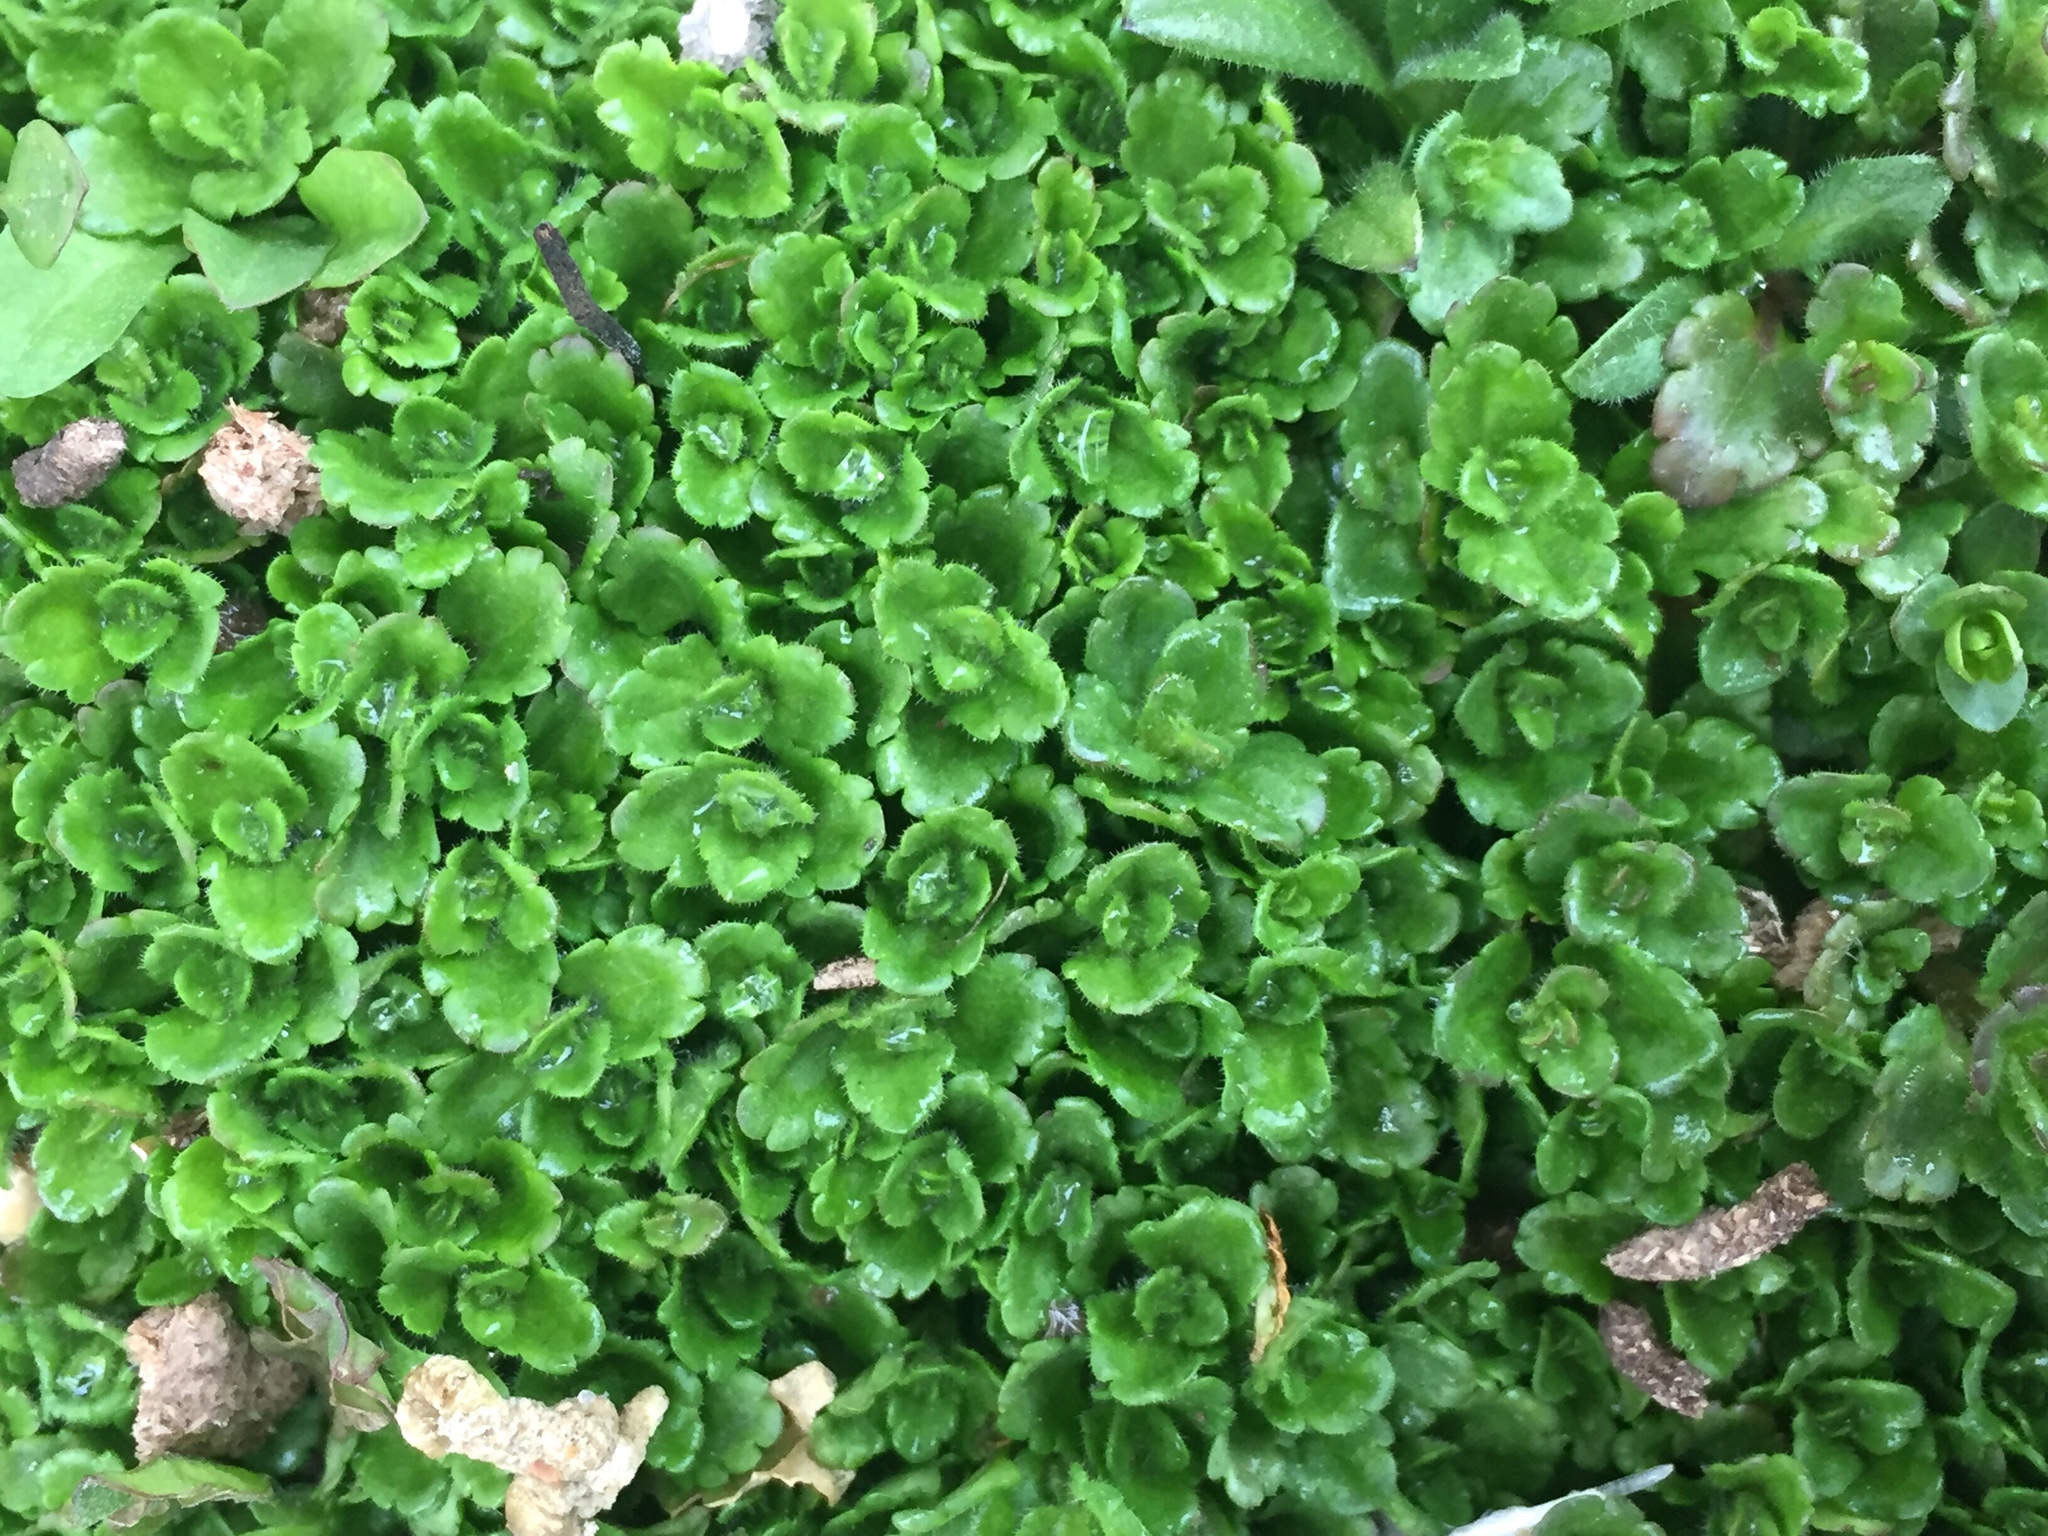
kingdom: Plantae
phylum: Tracheophyta
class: Magnoliopsida
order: Lamiales
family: Plantaginaceae
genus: Veronica
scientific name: Veronica arvensis
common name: Corn speedwell
